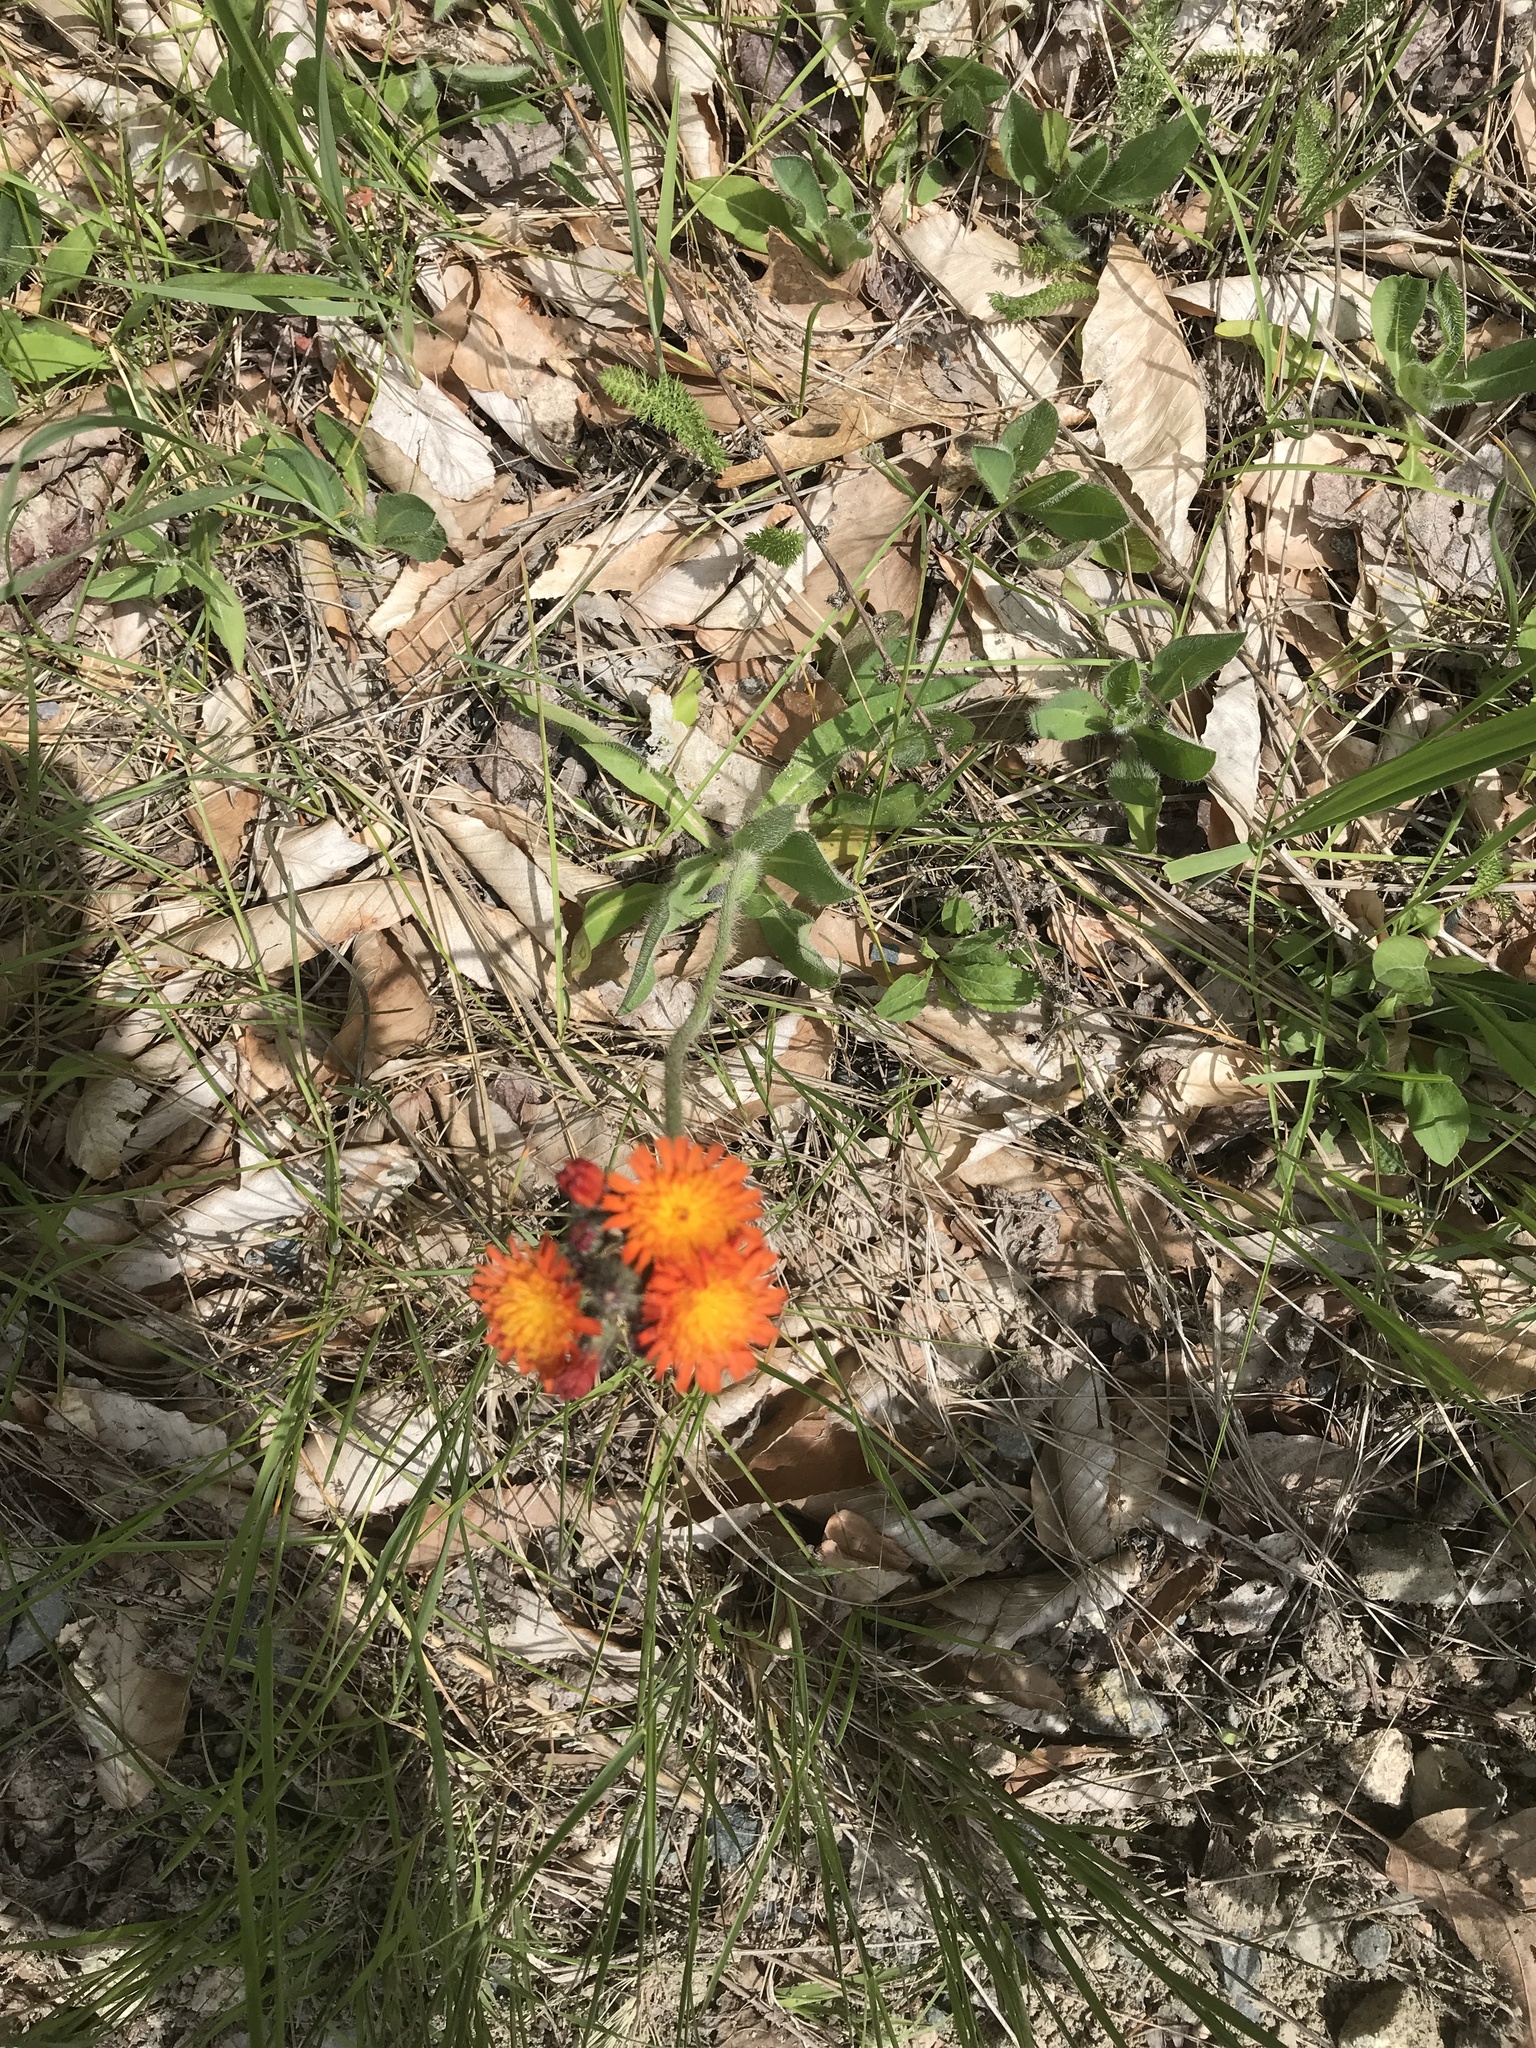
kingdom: Plantae
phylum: Tracheophyta
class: Magnoliopsida
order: Asterales
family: Asteraceae
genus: Pilosella
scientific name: Pilosella aurantiaca
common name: Fox-and-cubs
